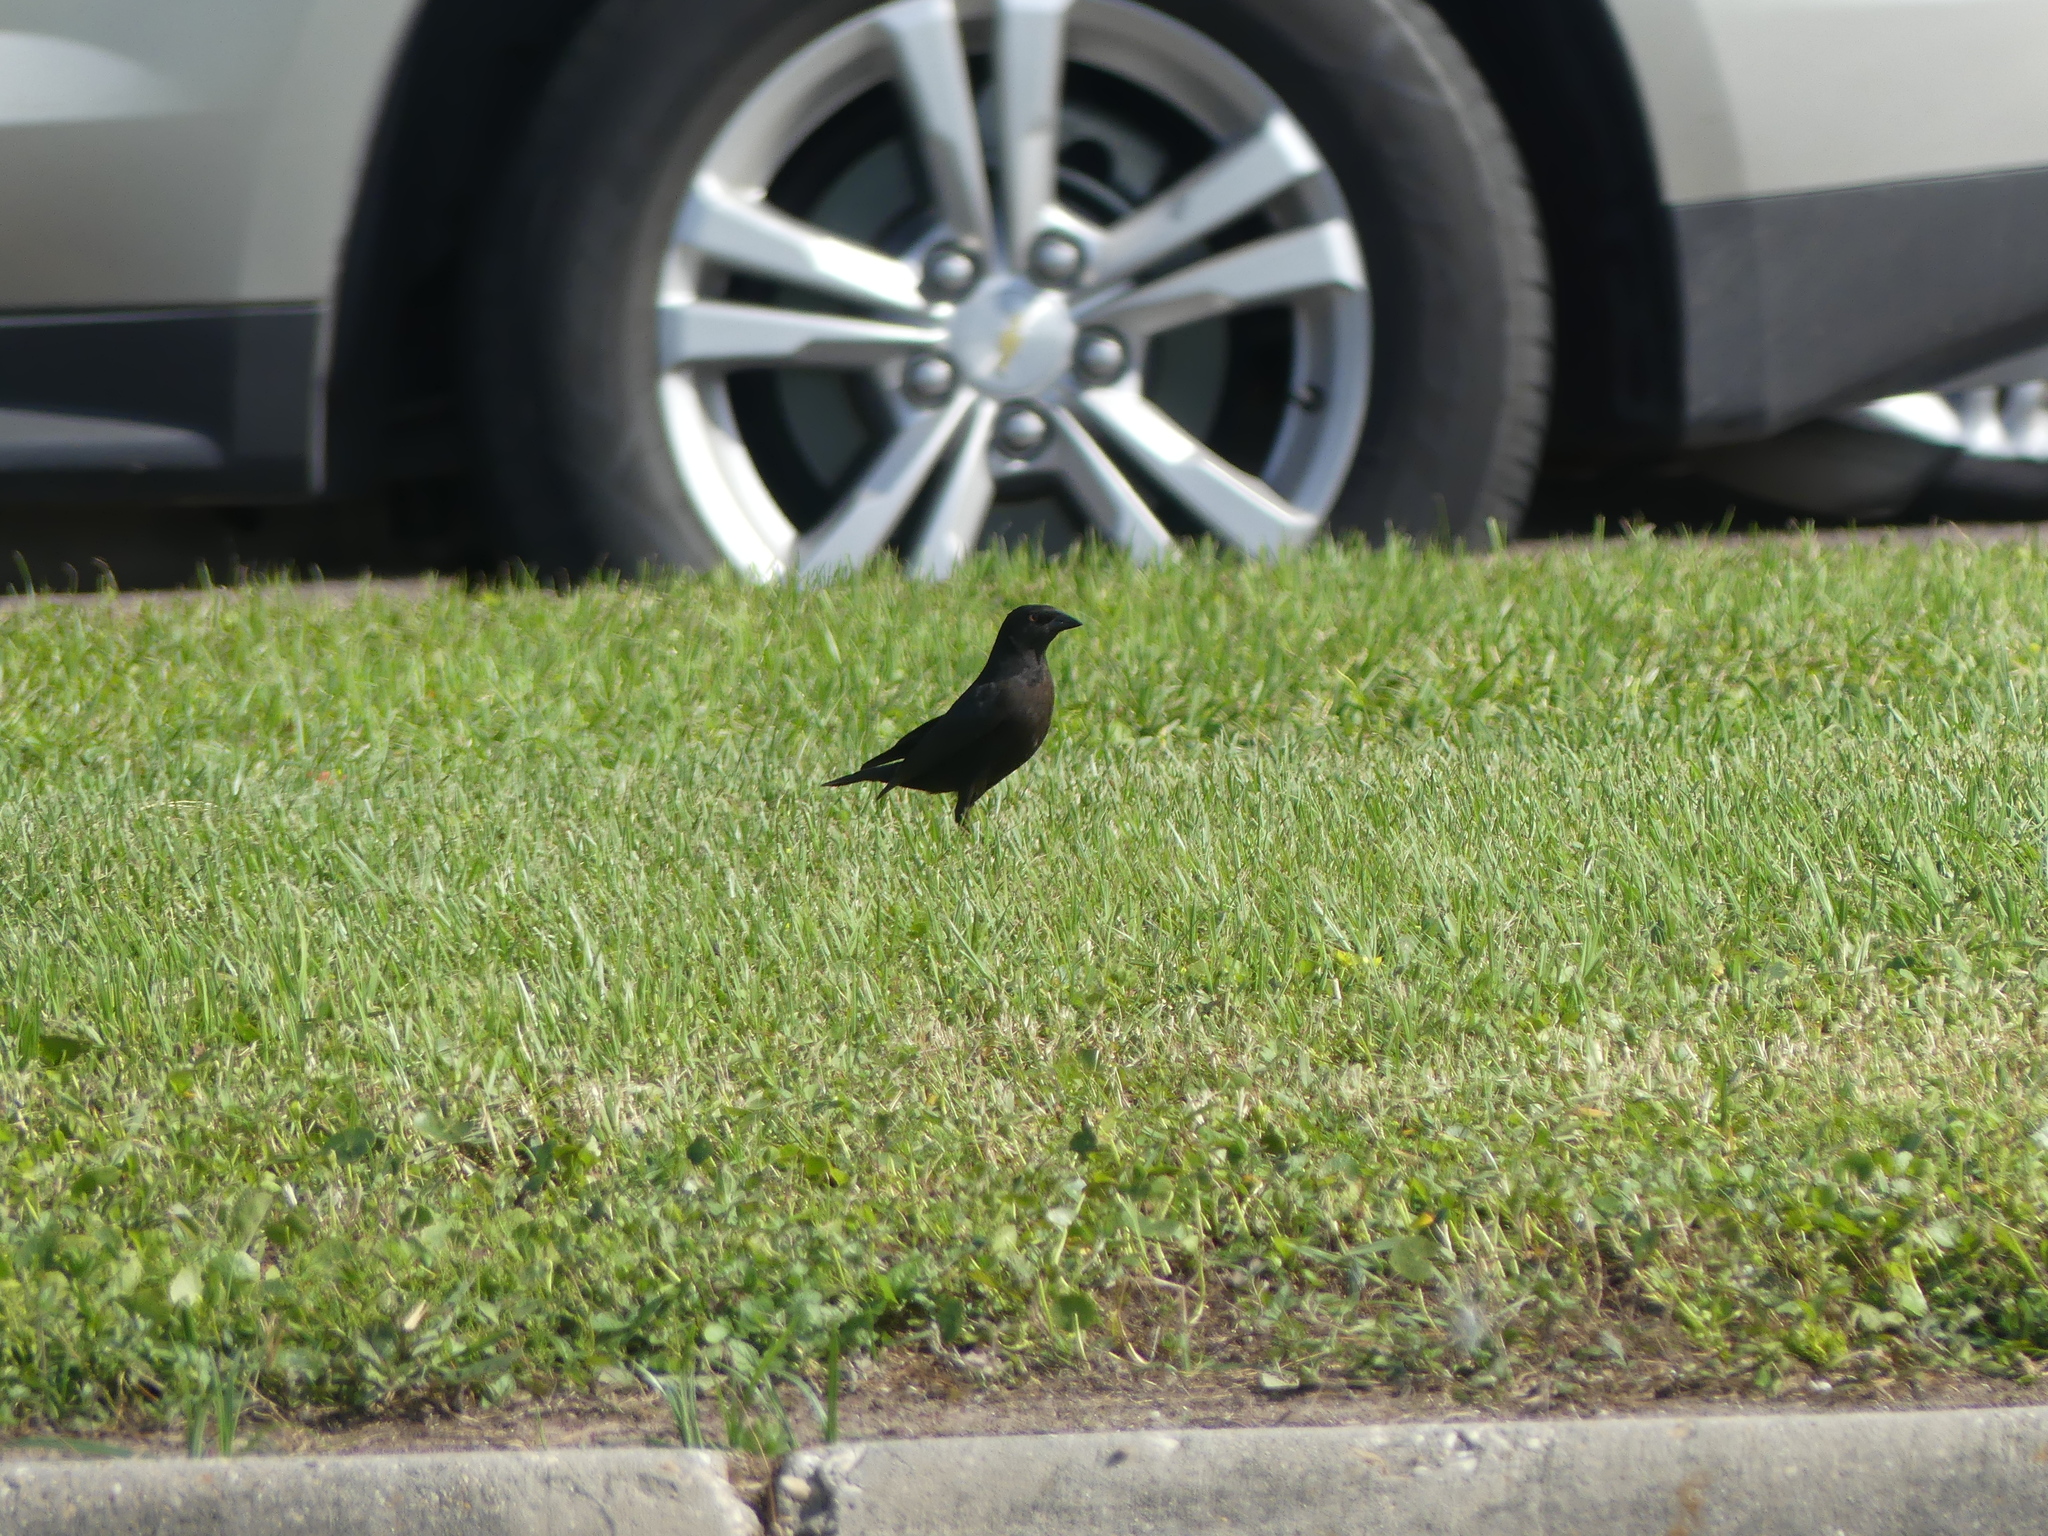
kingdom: Animalia
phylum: Chordata
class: Aves
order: Passeriformes
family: Icteridae
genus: Molothrus
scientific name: Molothrus aeneus
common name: Bronzed cowbird
